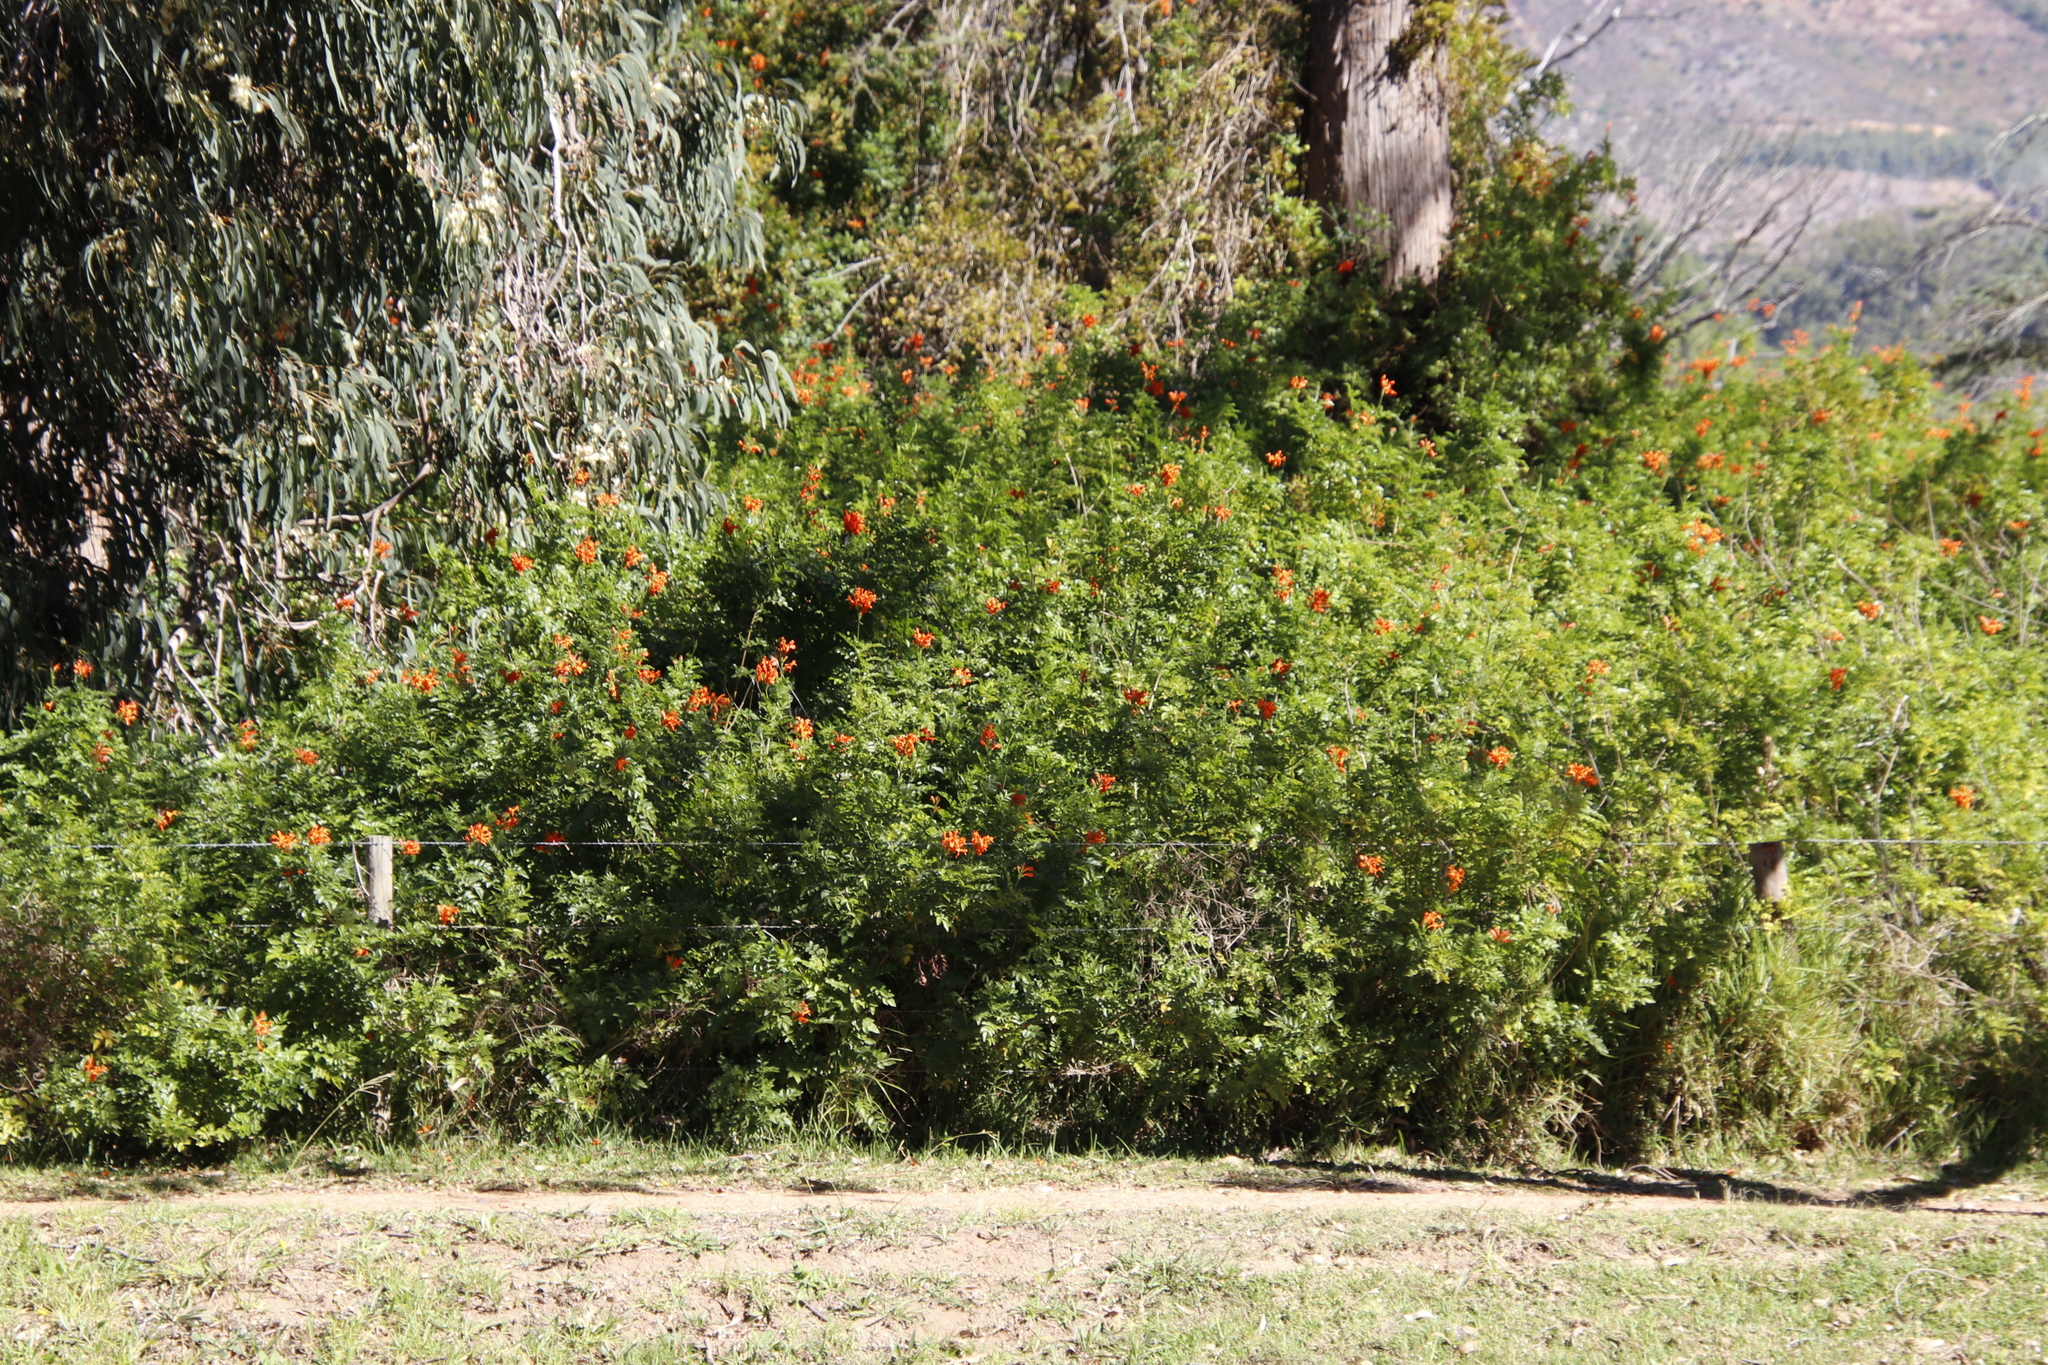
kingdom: Plantae
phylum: Tracheophyta
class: Magnoliopsida
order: Lamiales
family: Bignoniaceae
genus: Tecomaria
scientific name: Tecomaria capensis
